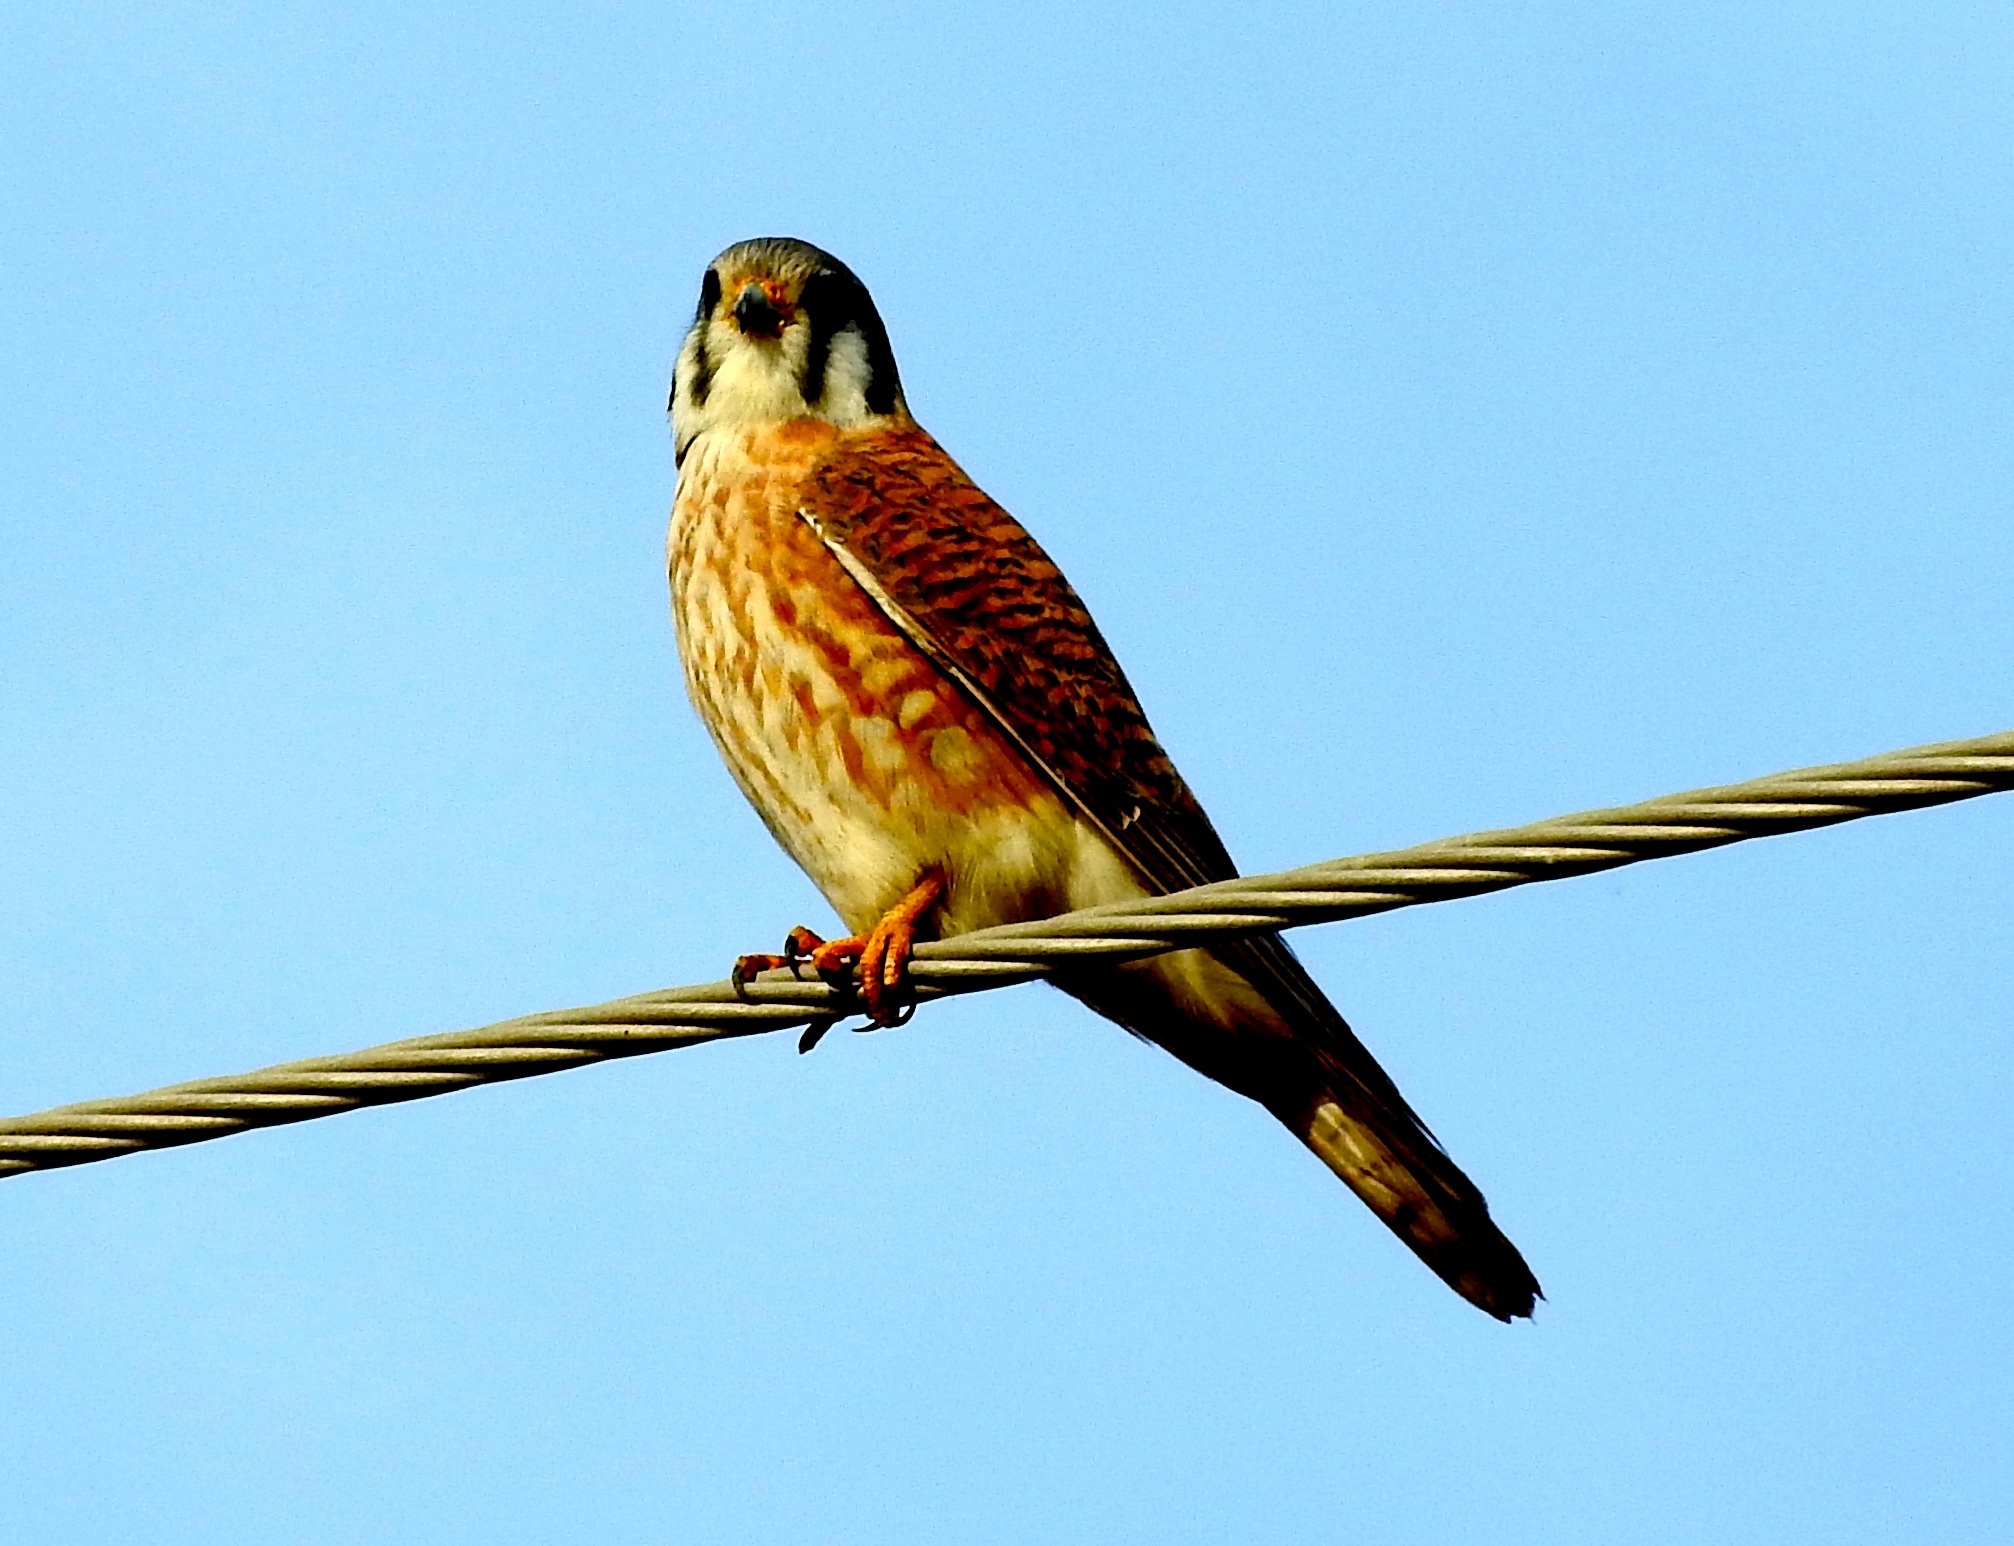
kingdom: Animalia
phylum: Chordata
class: Aves
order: Falconiformes
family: Falconidae
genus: Falco
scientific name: Falco sparverius
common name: American kestrel
